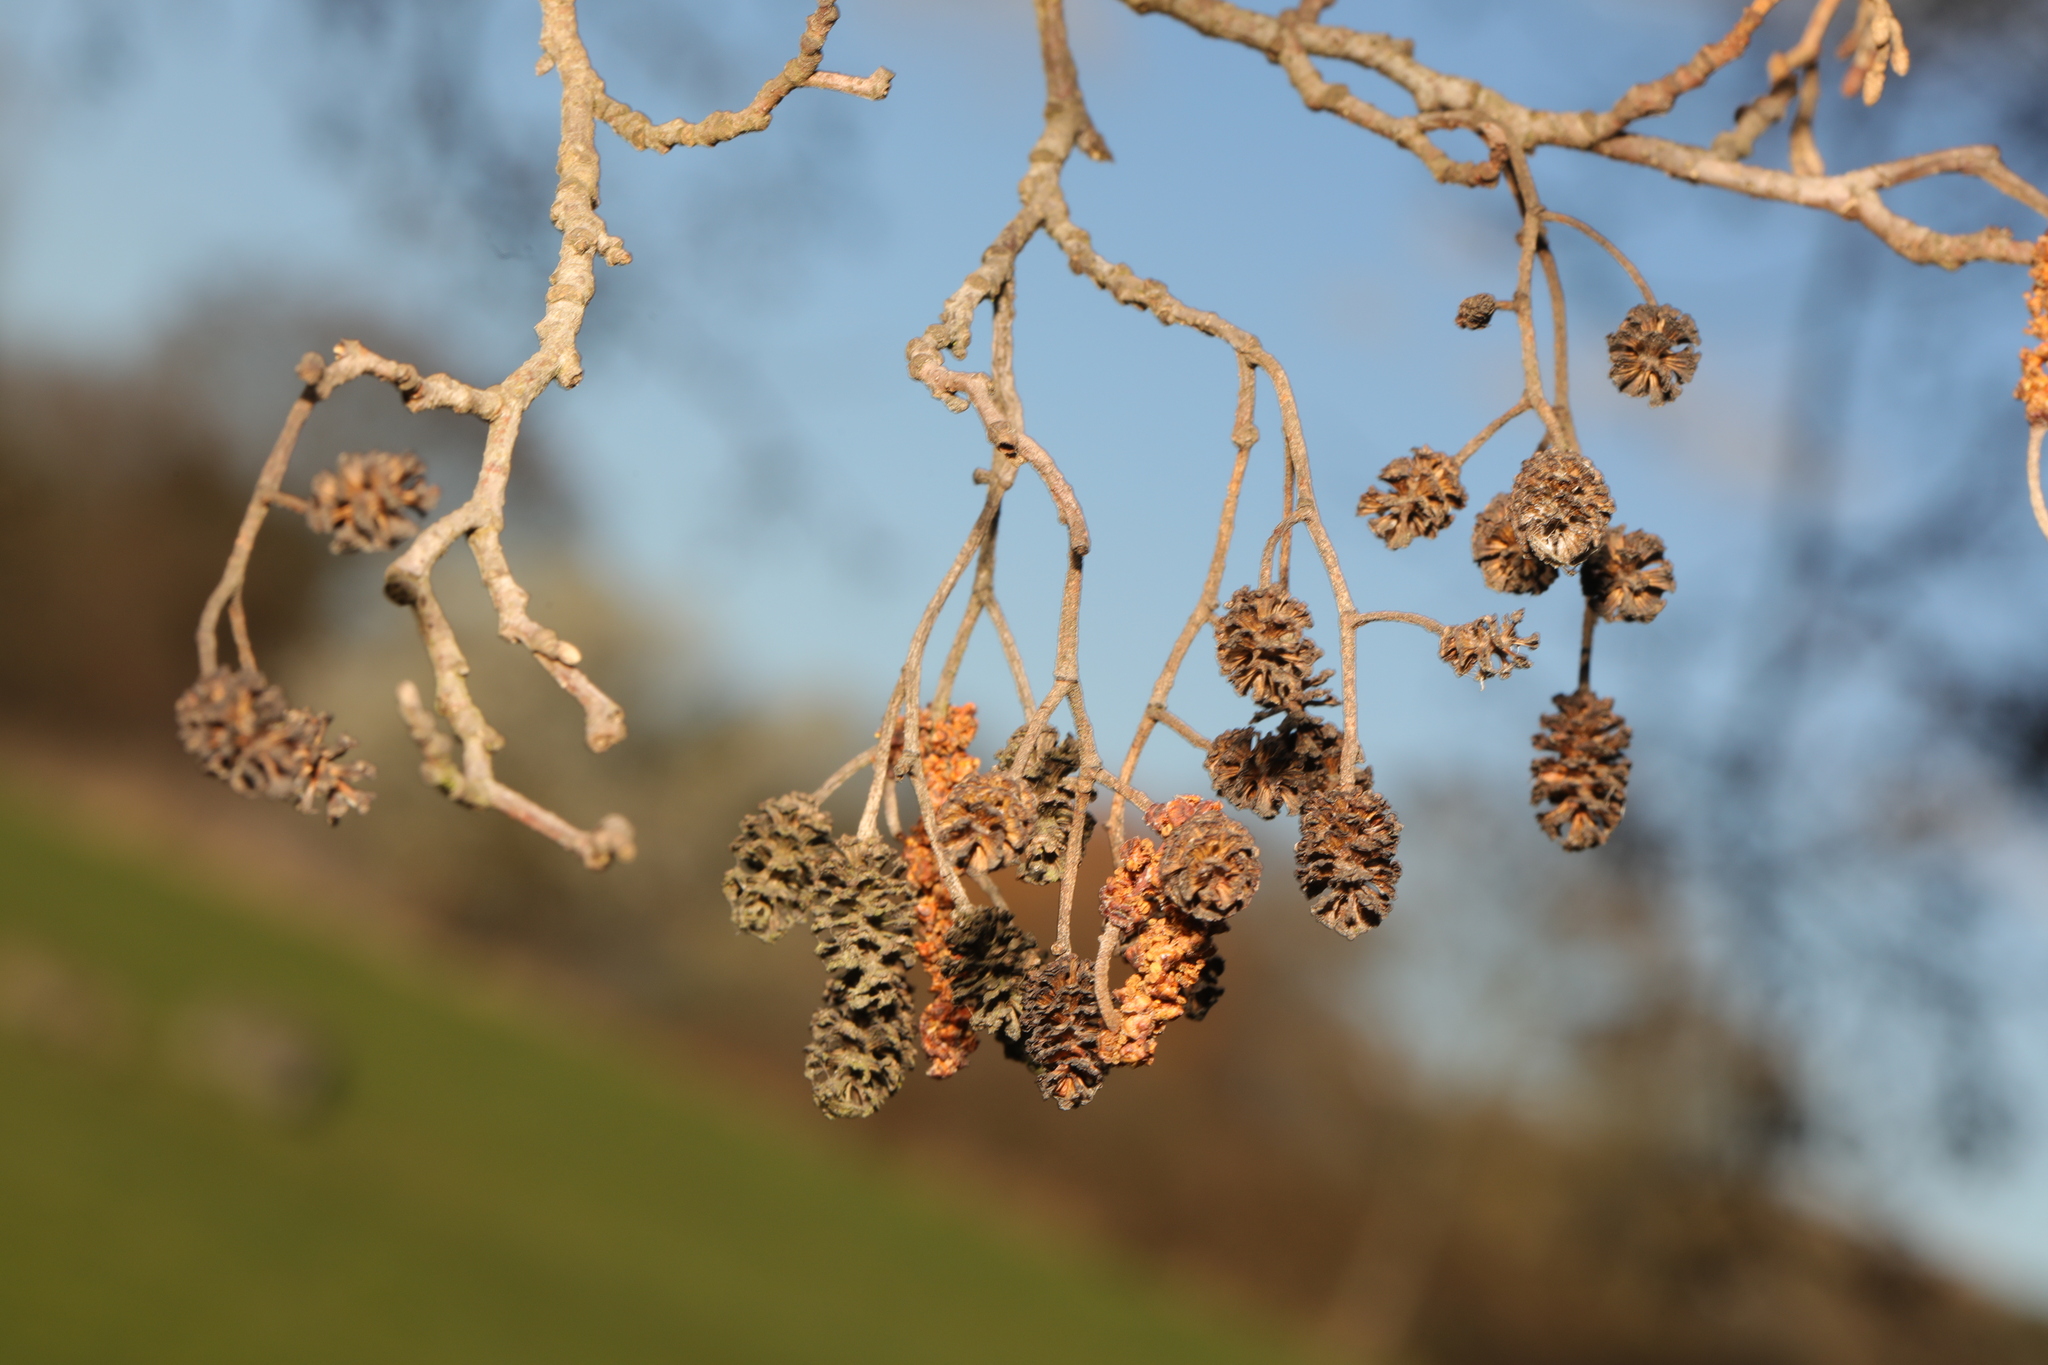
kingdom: Plantae
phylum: Tracheophyta
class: Magnoliopsida
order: Fagales
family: Betulaceae
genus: Alnus
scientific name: Alnus glutinosa
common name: Black alder
